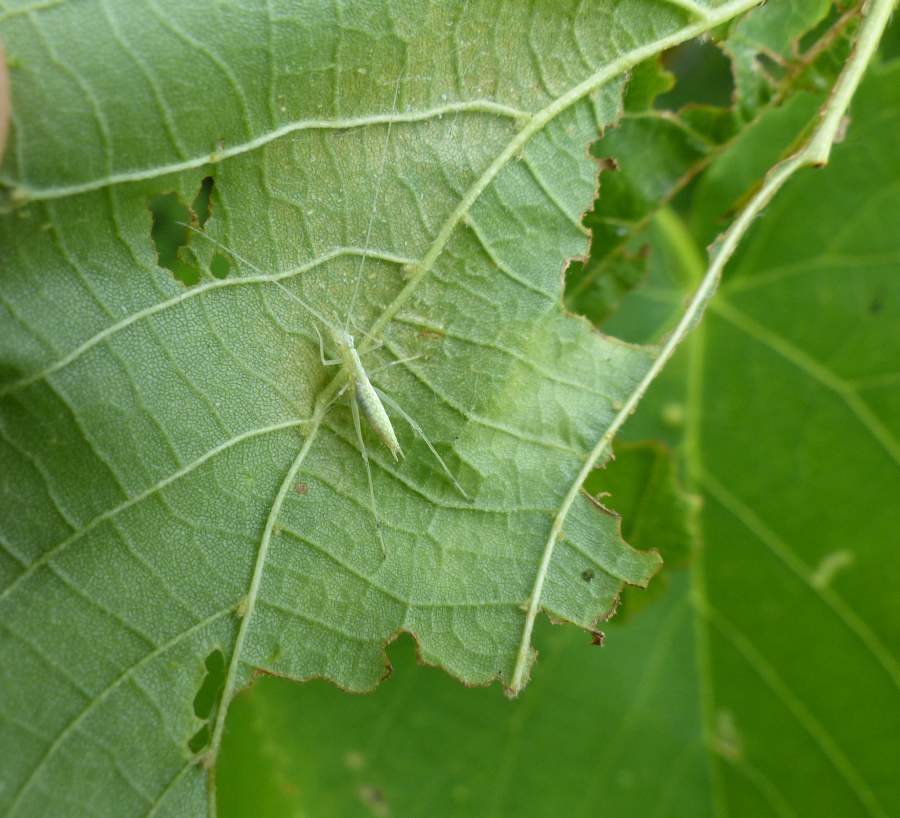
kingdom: Animalia
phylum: Arthropoda
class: Insecta
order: Orthoptera
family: Gryllidae
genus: Oecanthus
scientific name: Oecanthus niveus
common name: Narrow-winged tree cricket
